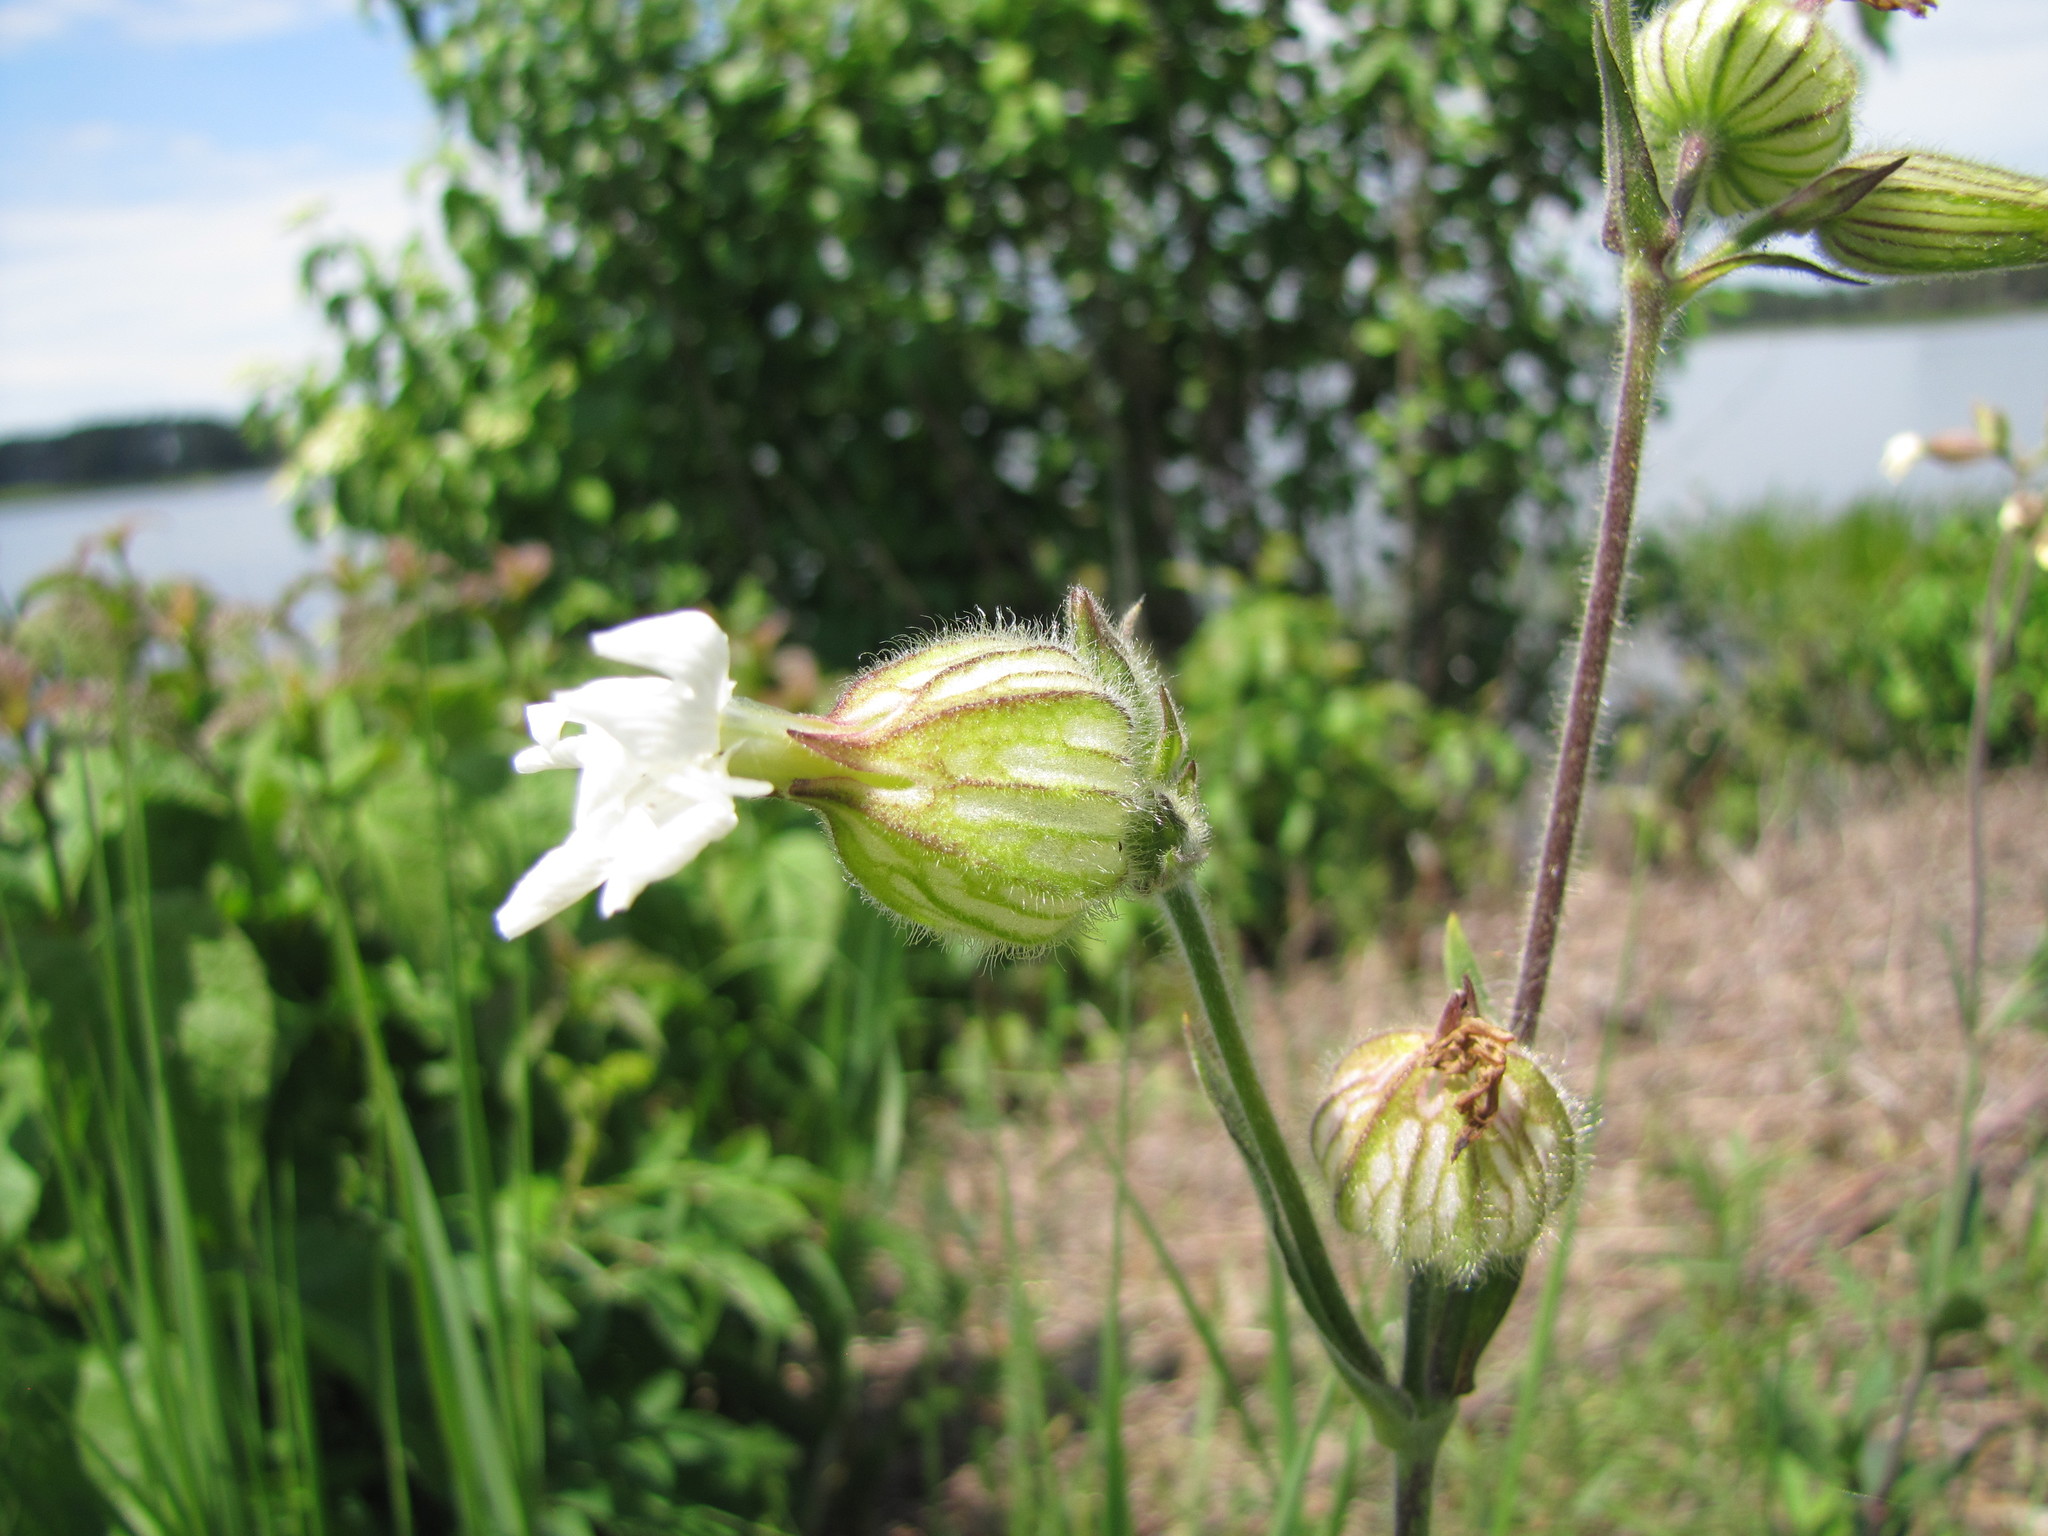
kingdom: Plantae
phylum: Tracheophyta
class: Magnoliopsida
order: Caryophyllales
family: Caryophyllaceae
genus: Silene
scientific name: Silene latifolia
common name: White campion
